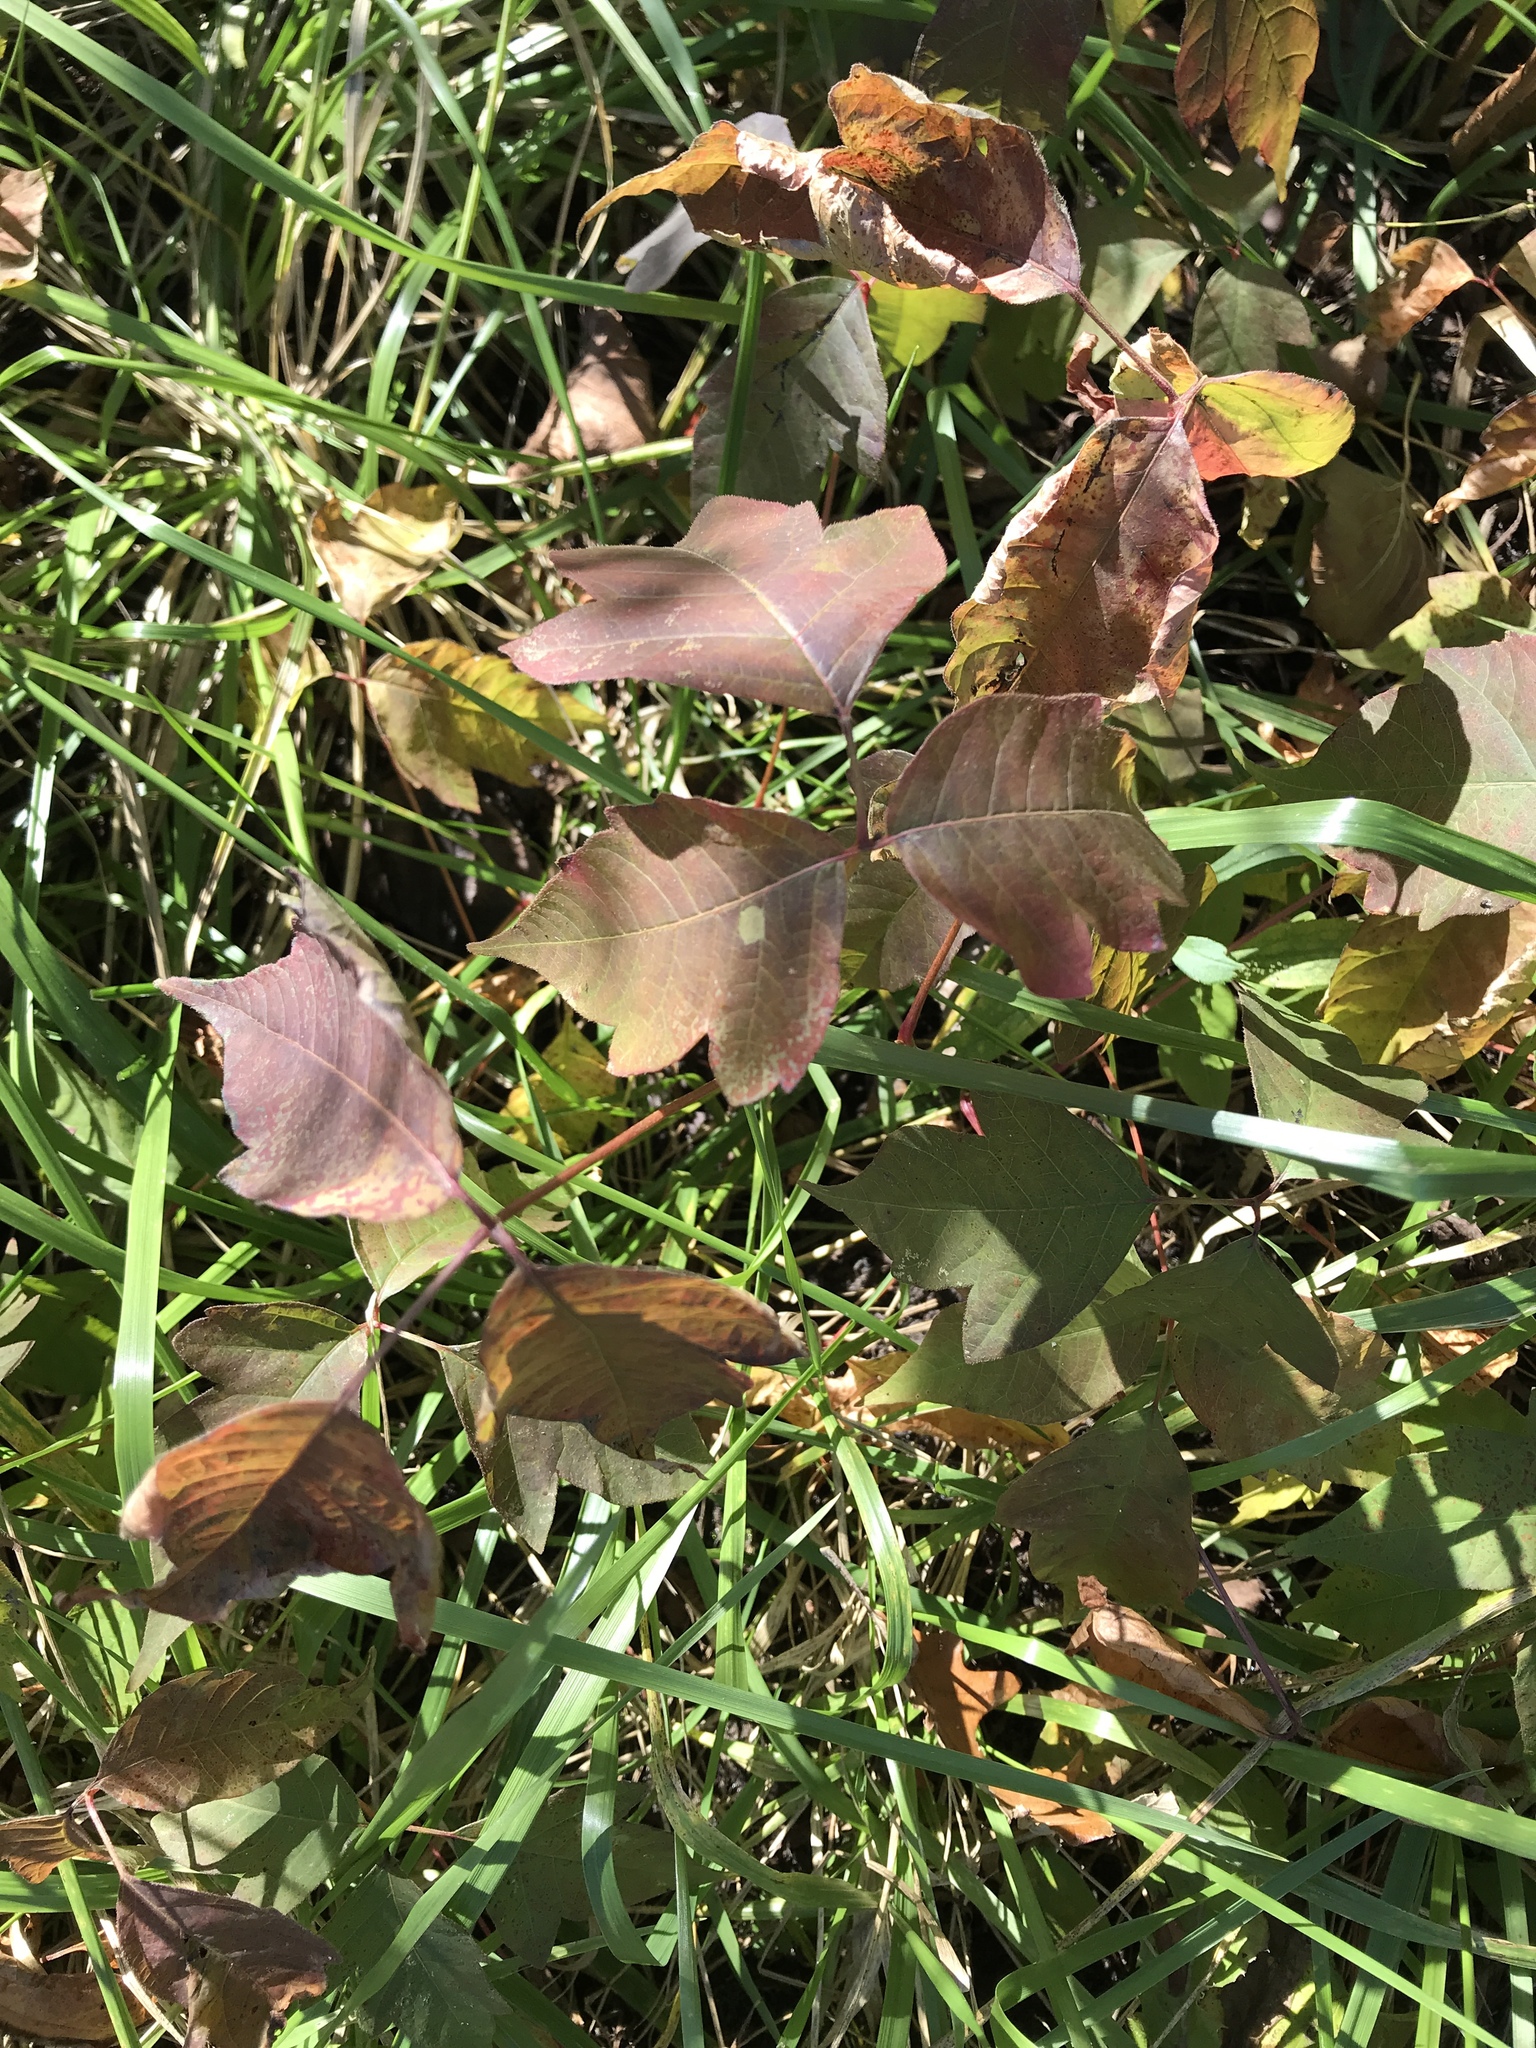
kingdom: Plantae
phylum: Tracheophyta
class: Magnoliopsida
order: Sapindales
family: Anacardiaceae
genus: Toxicodendron
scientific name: Toxicodendron radicans
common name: Poison ivy
